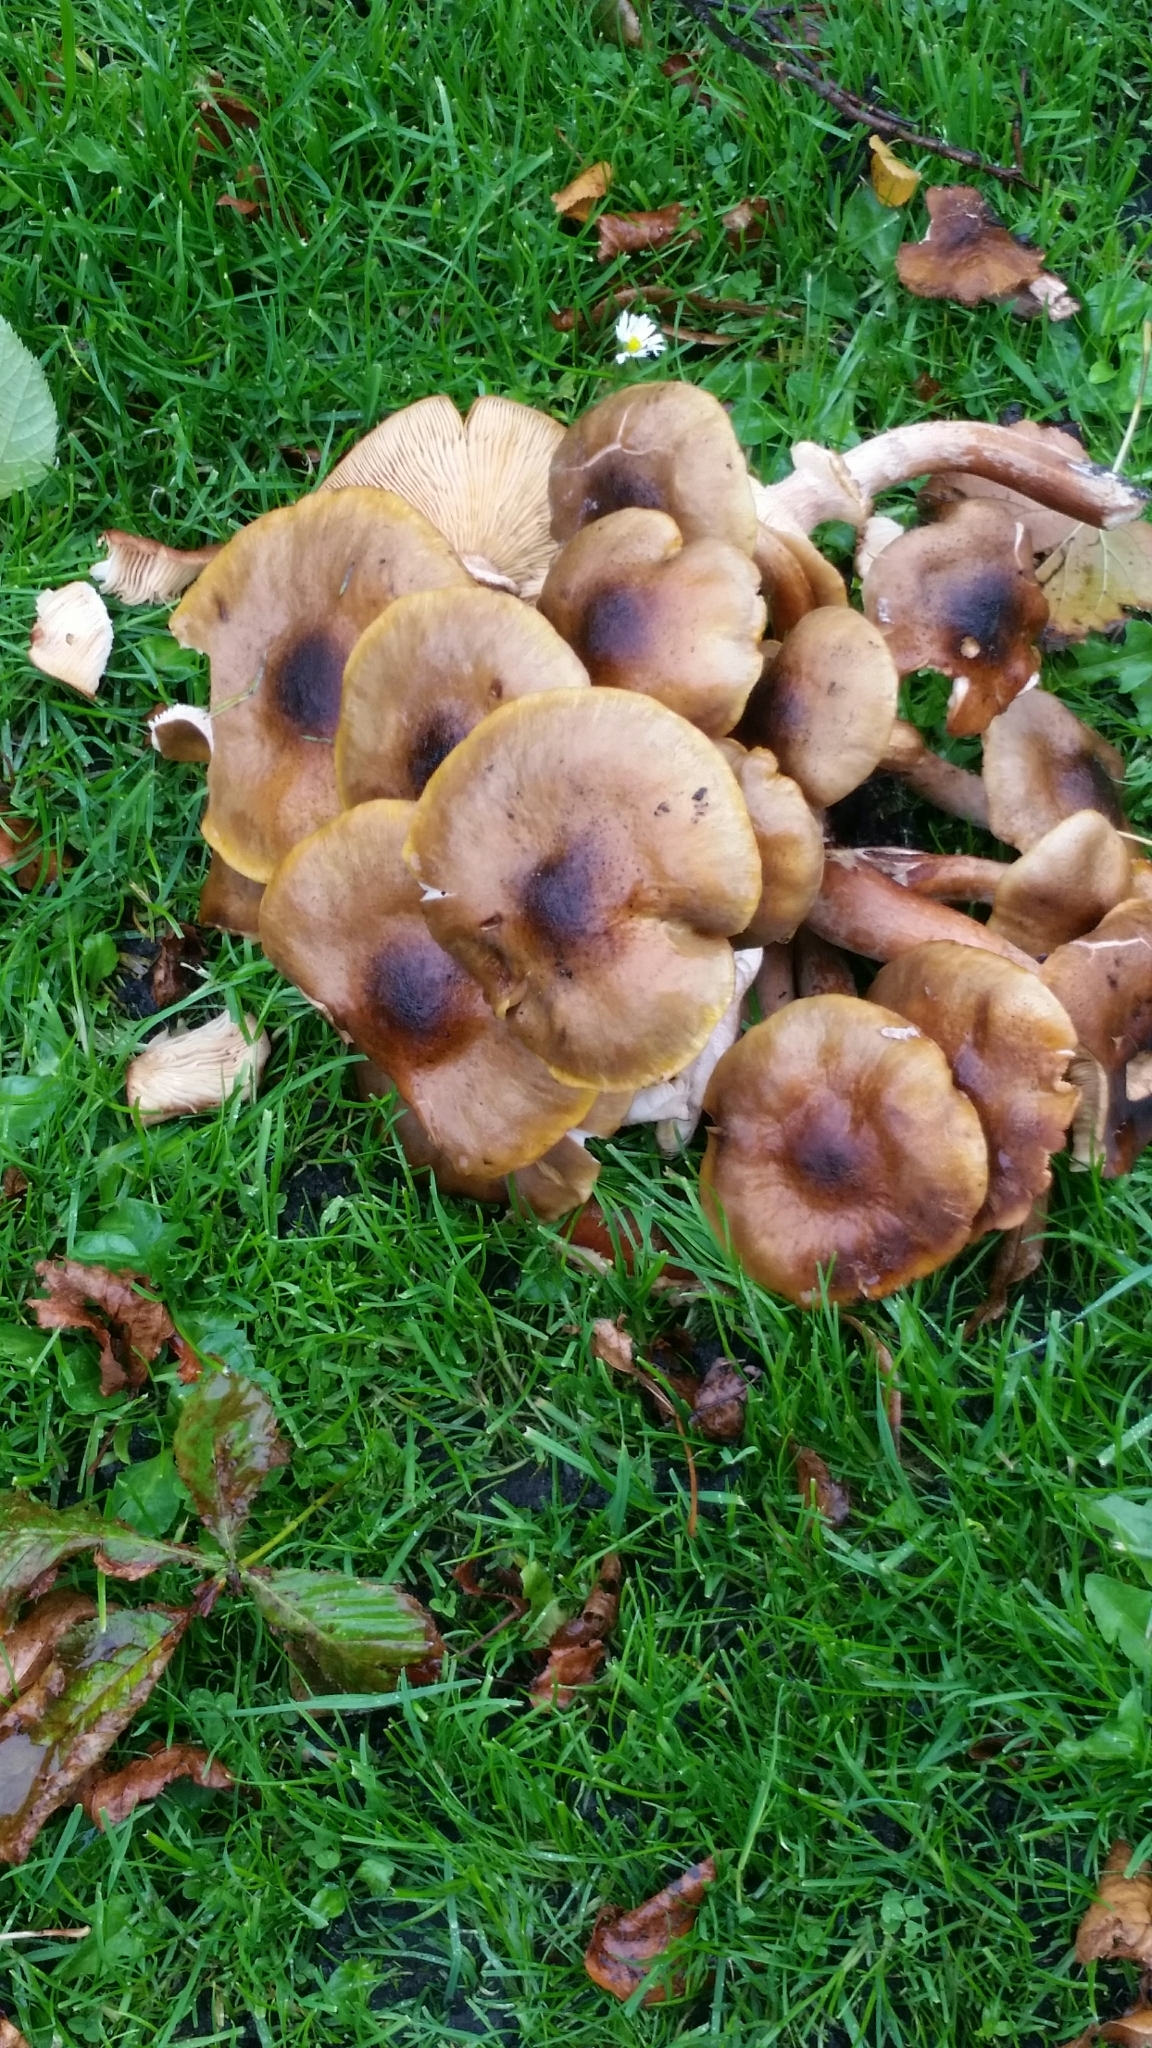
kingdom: Fungi
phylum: Basidiomycota
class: Agaricomycetes
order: Agaricales
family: Physalacriaceae
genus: Armillaria
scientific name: Armillaria mellea
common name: Honey fungus
